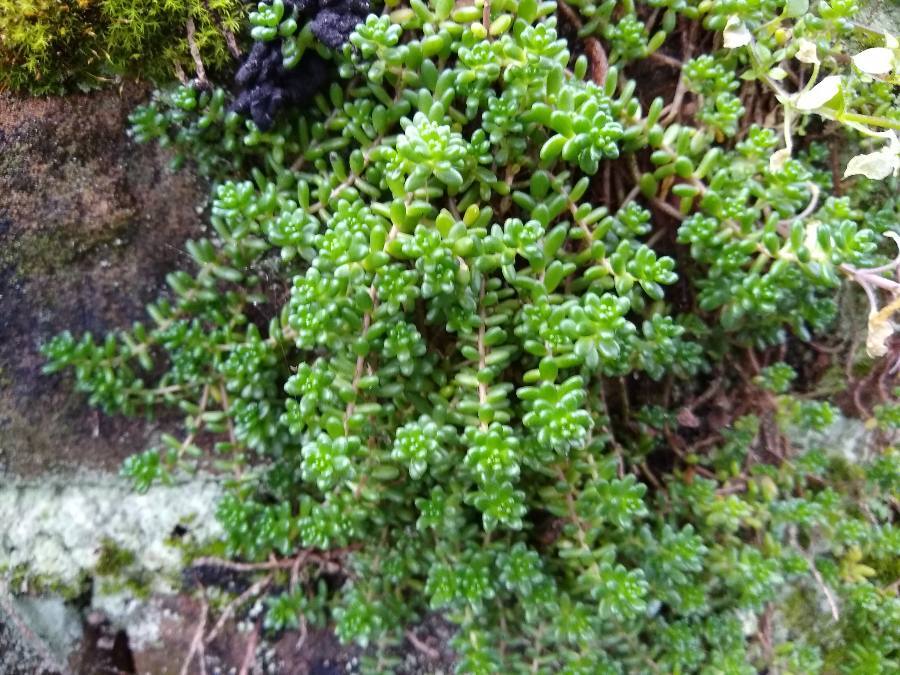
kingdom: Plantae
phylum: Tracheophyta
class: Magnoliopsida
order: Saxifragales
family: Crassulaceae
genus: Sedum
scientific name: Sedum album
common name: White stonecrop
